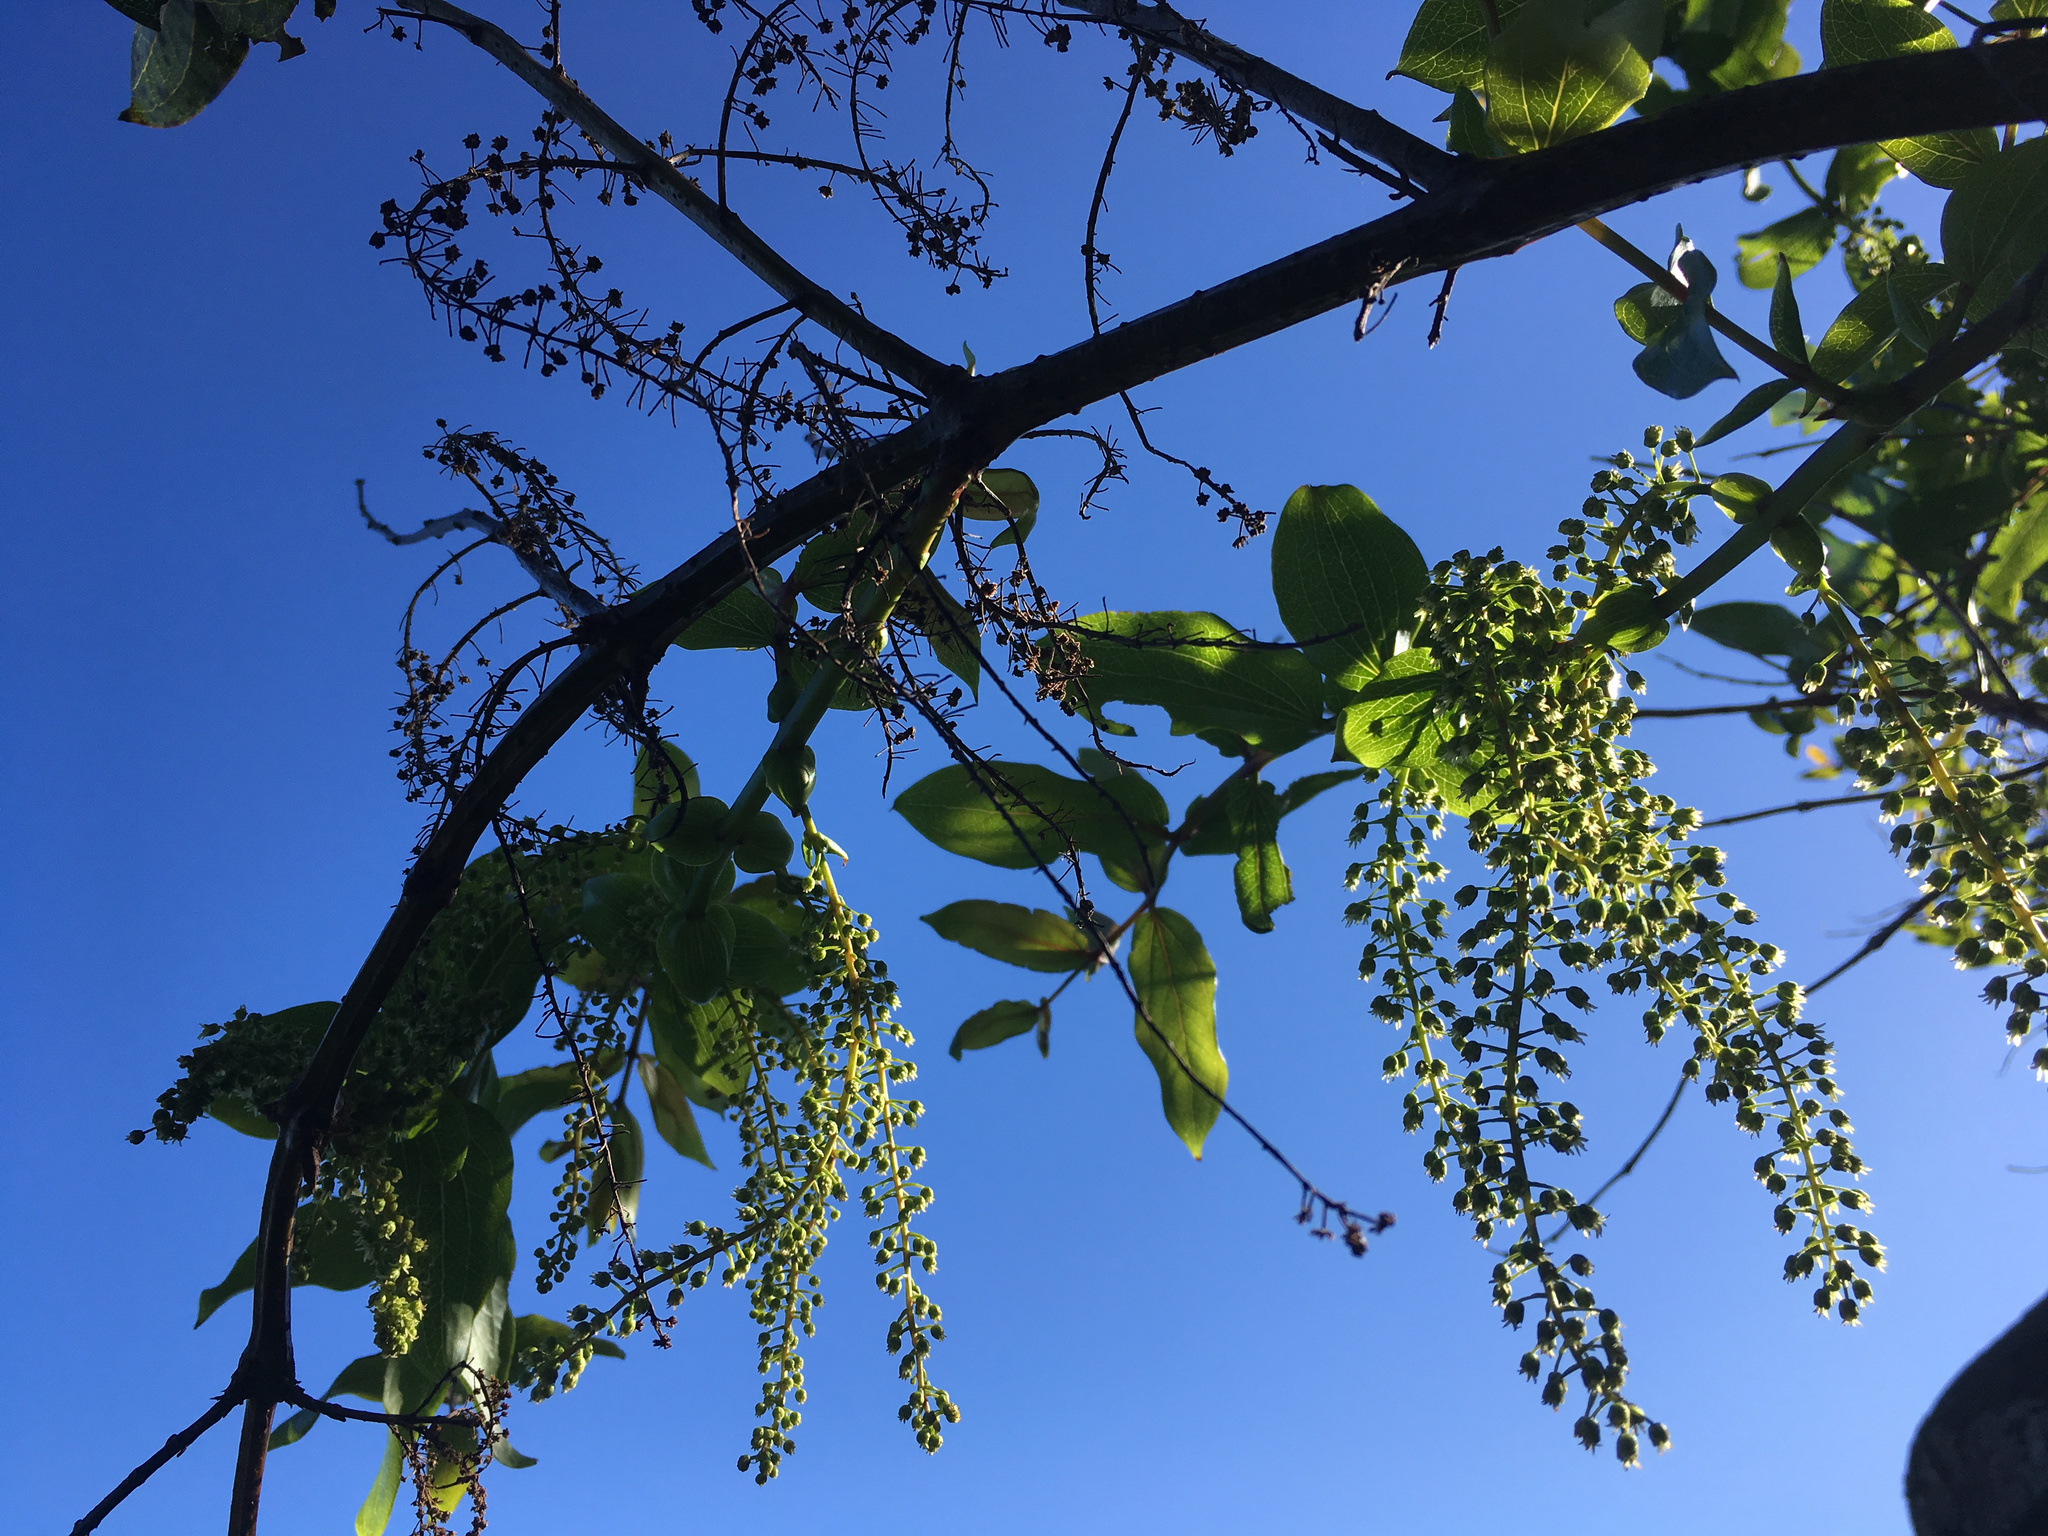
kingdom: Plantae
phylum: Tracheophyta
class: Magnoliopsida
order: Cucurbitales
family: Coriariaceae
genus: Coriaria
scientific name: Coriaria arborea
